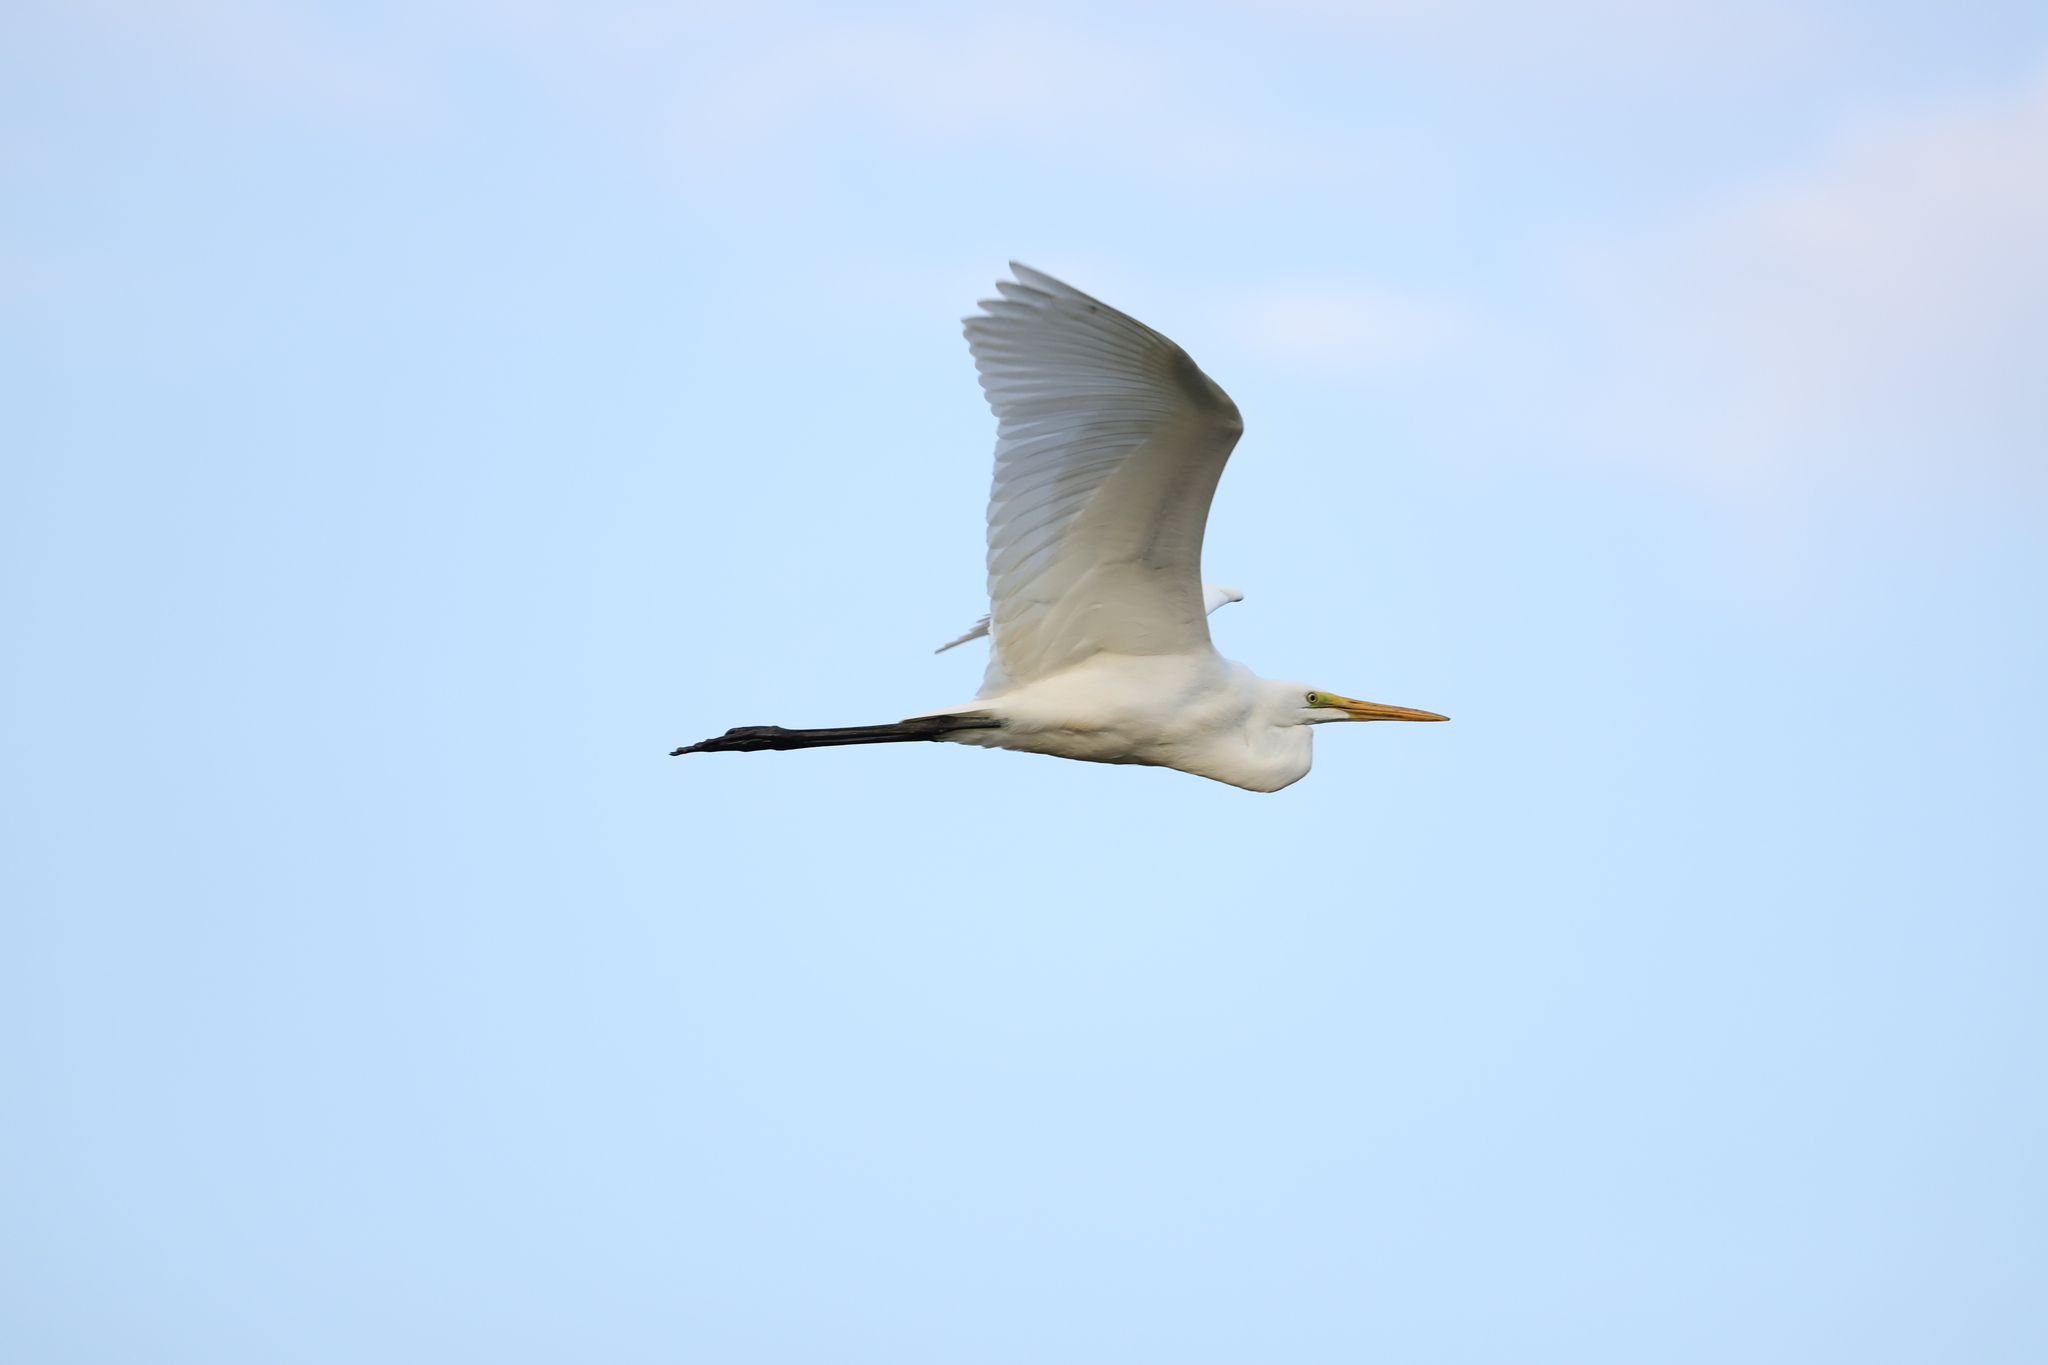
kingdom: Animalia
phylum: Chordata
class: Aves
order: Pelecaniformes
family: Ardeidae
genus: Ardea
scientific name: Ardea alba
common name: Great egret
